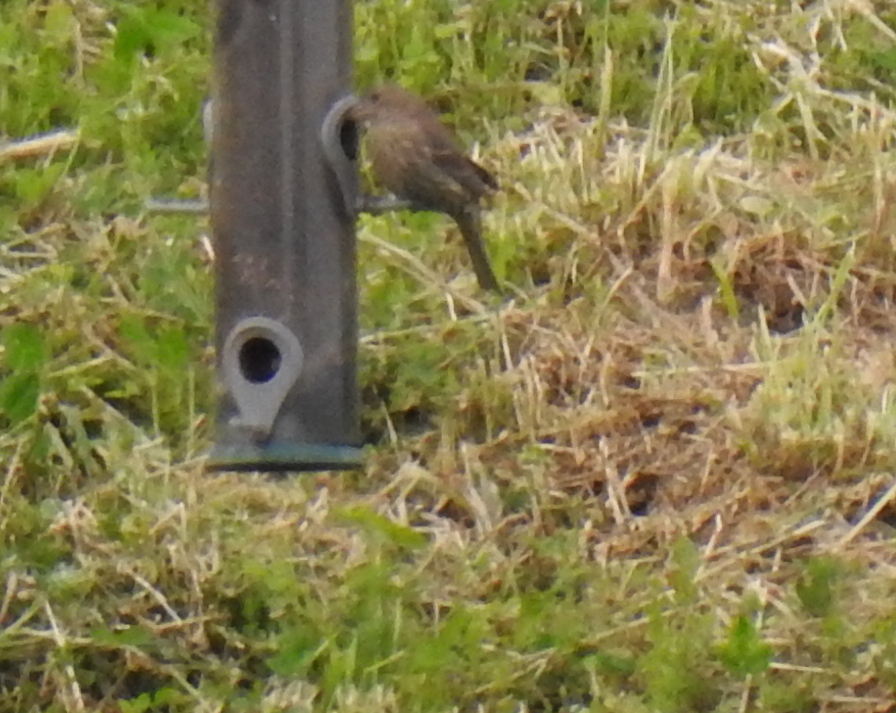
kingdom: Animalia
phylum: Chordata
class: Aves
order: Passeriformes
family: Fringillidae
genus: Haemorhous
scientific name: Haemorhous mexicanus
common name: House finch
